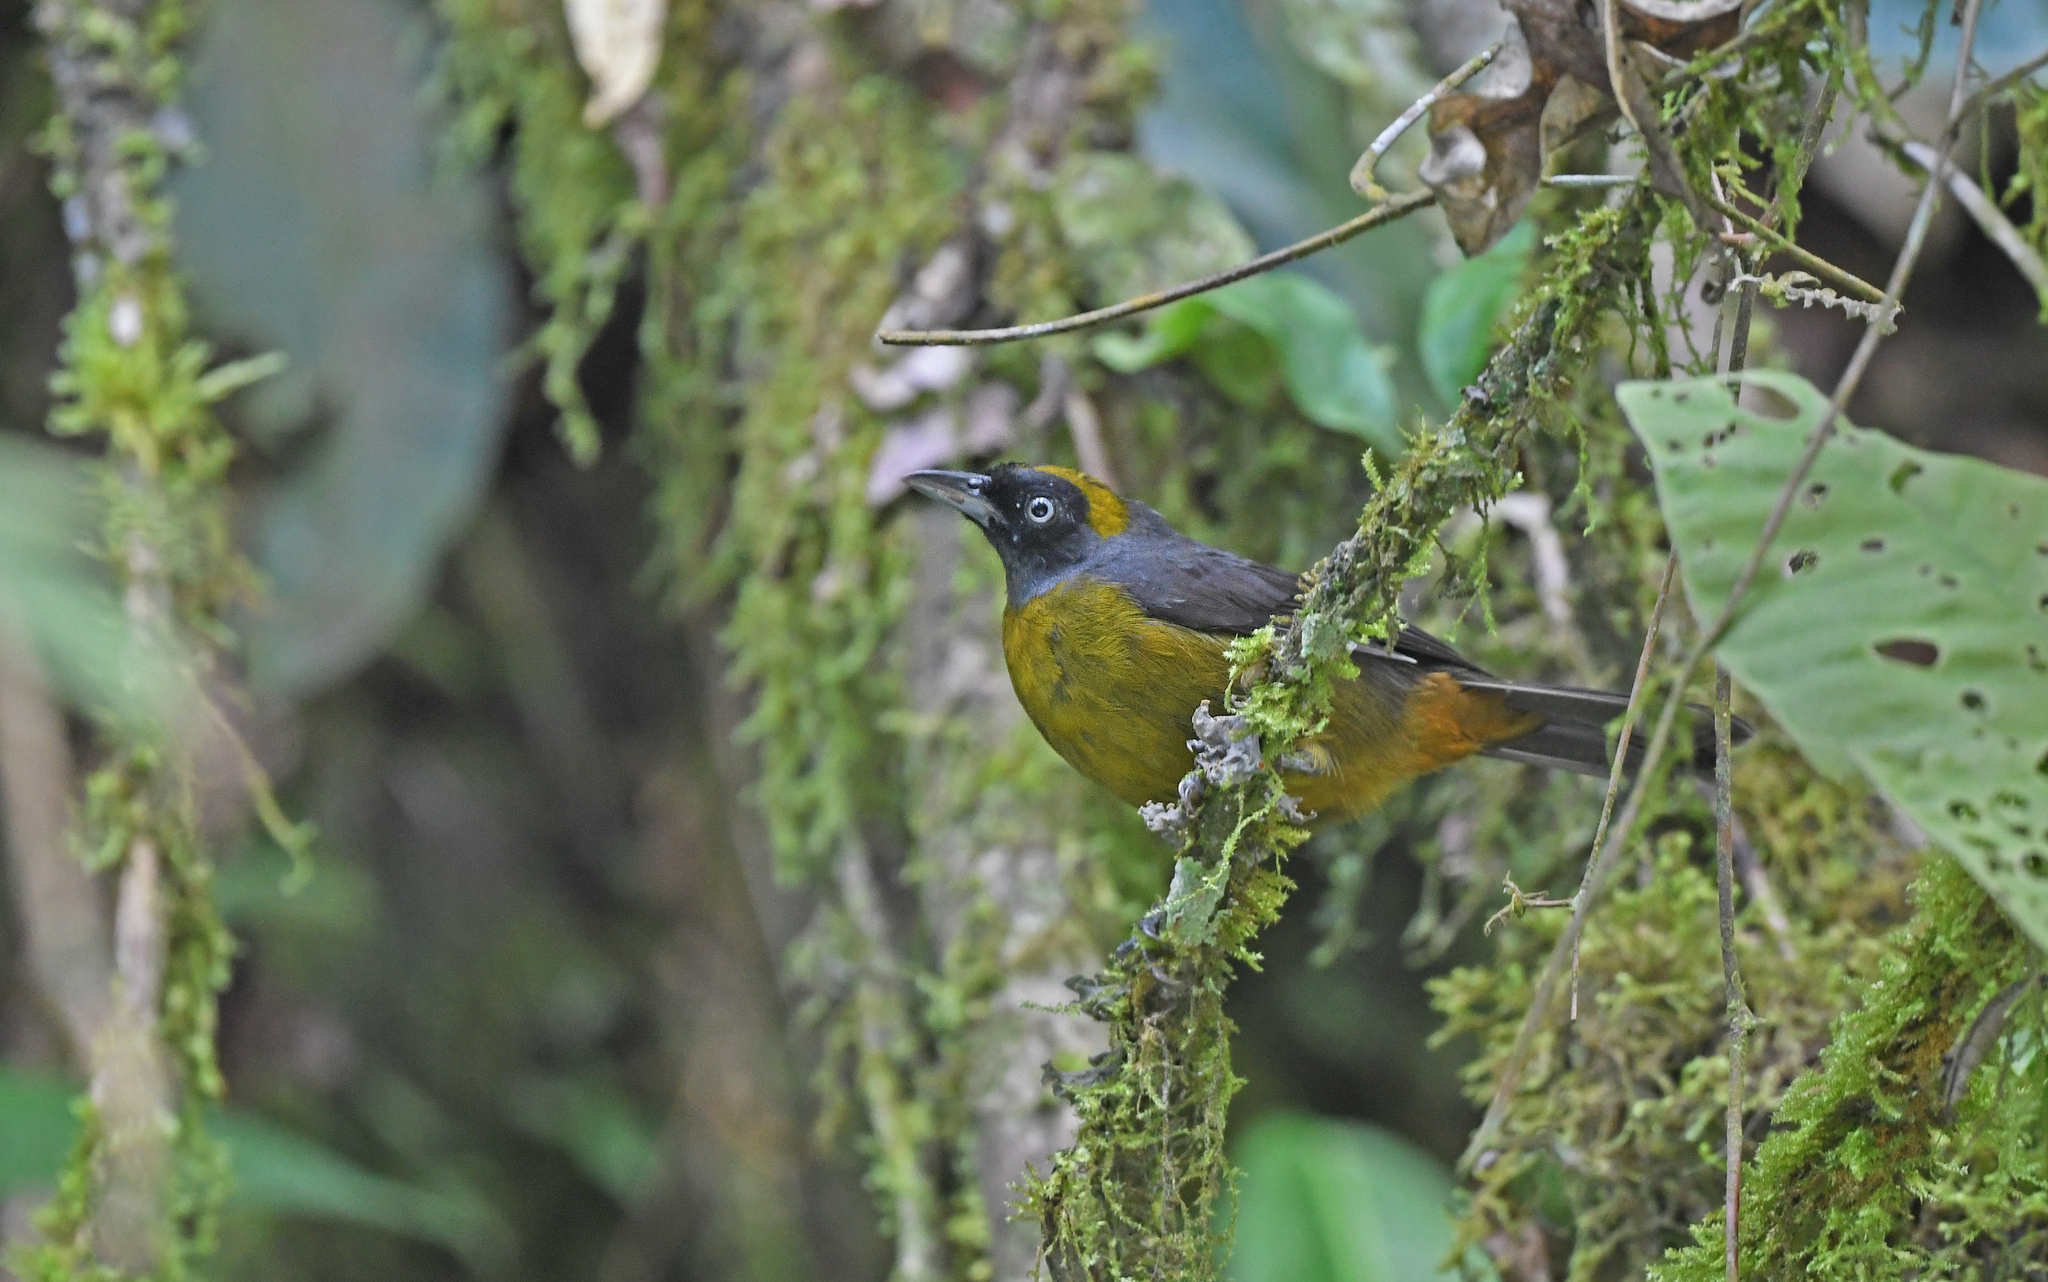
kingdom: Animalia
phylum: Chordata
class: Aves
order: Passeriformes
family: Mitrospingidae
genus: Mitrospingus
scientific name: Mitrospingus cassinii
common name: Dusky-faced tanager
